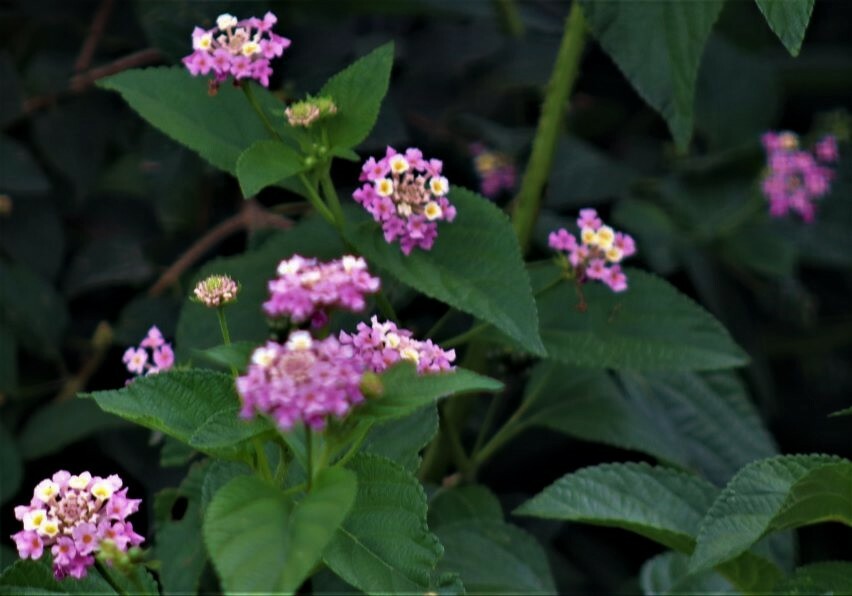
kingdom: Plantae
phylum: Tracheophyta
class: Magnoliopsida
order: Lamiales
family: Verbenaceae
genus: Lantana
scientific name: Lantana camara
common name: Lantana
